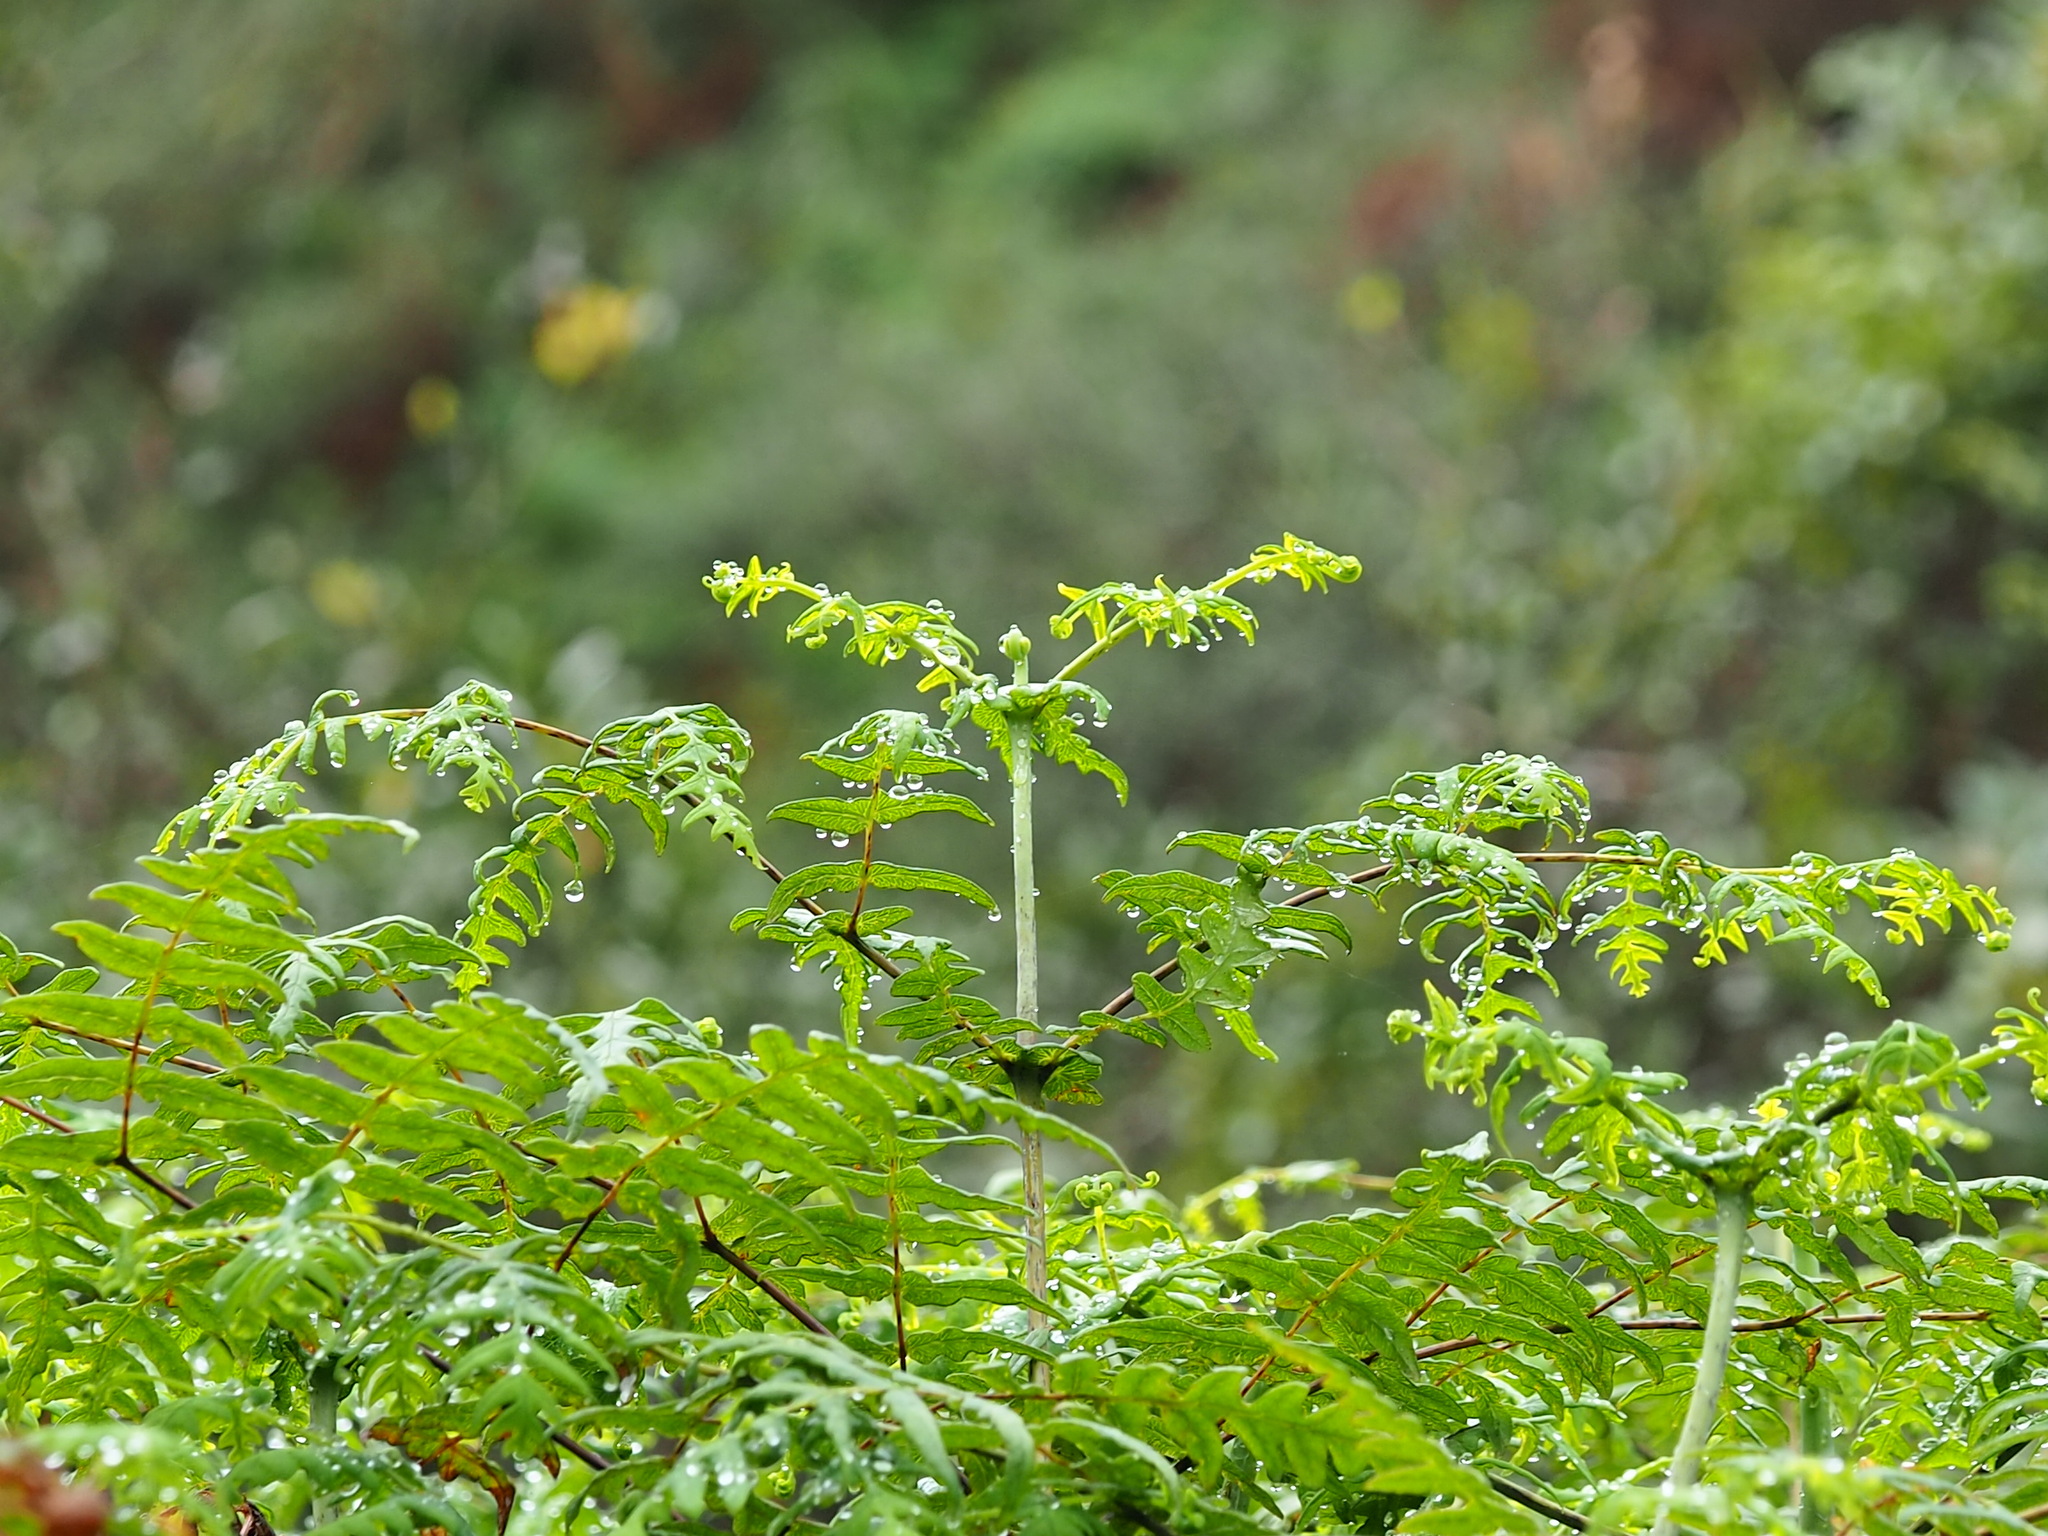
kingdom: Plantae
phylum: Tracheophyta
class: Polypodiopsida
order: Polypodiales
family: Dennstaedtiaceae
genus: Histiopteris
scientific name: Histiopteris incisa
